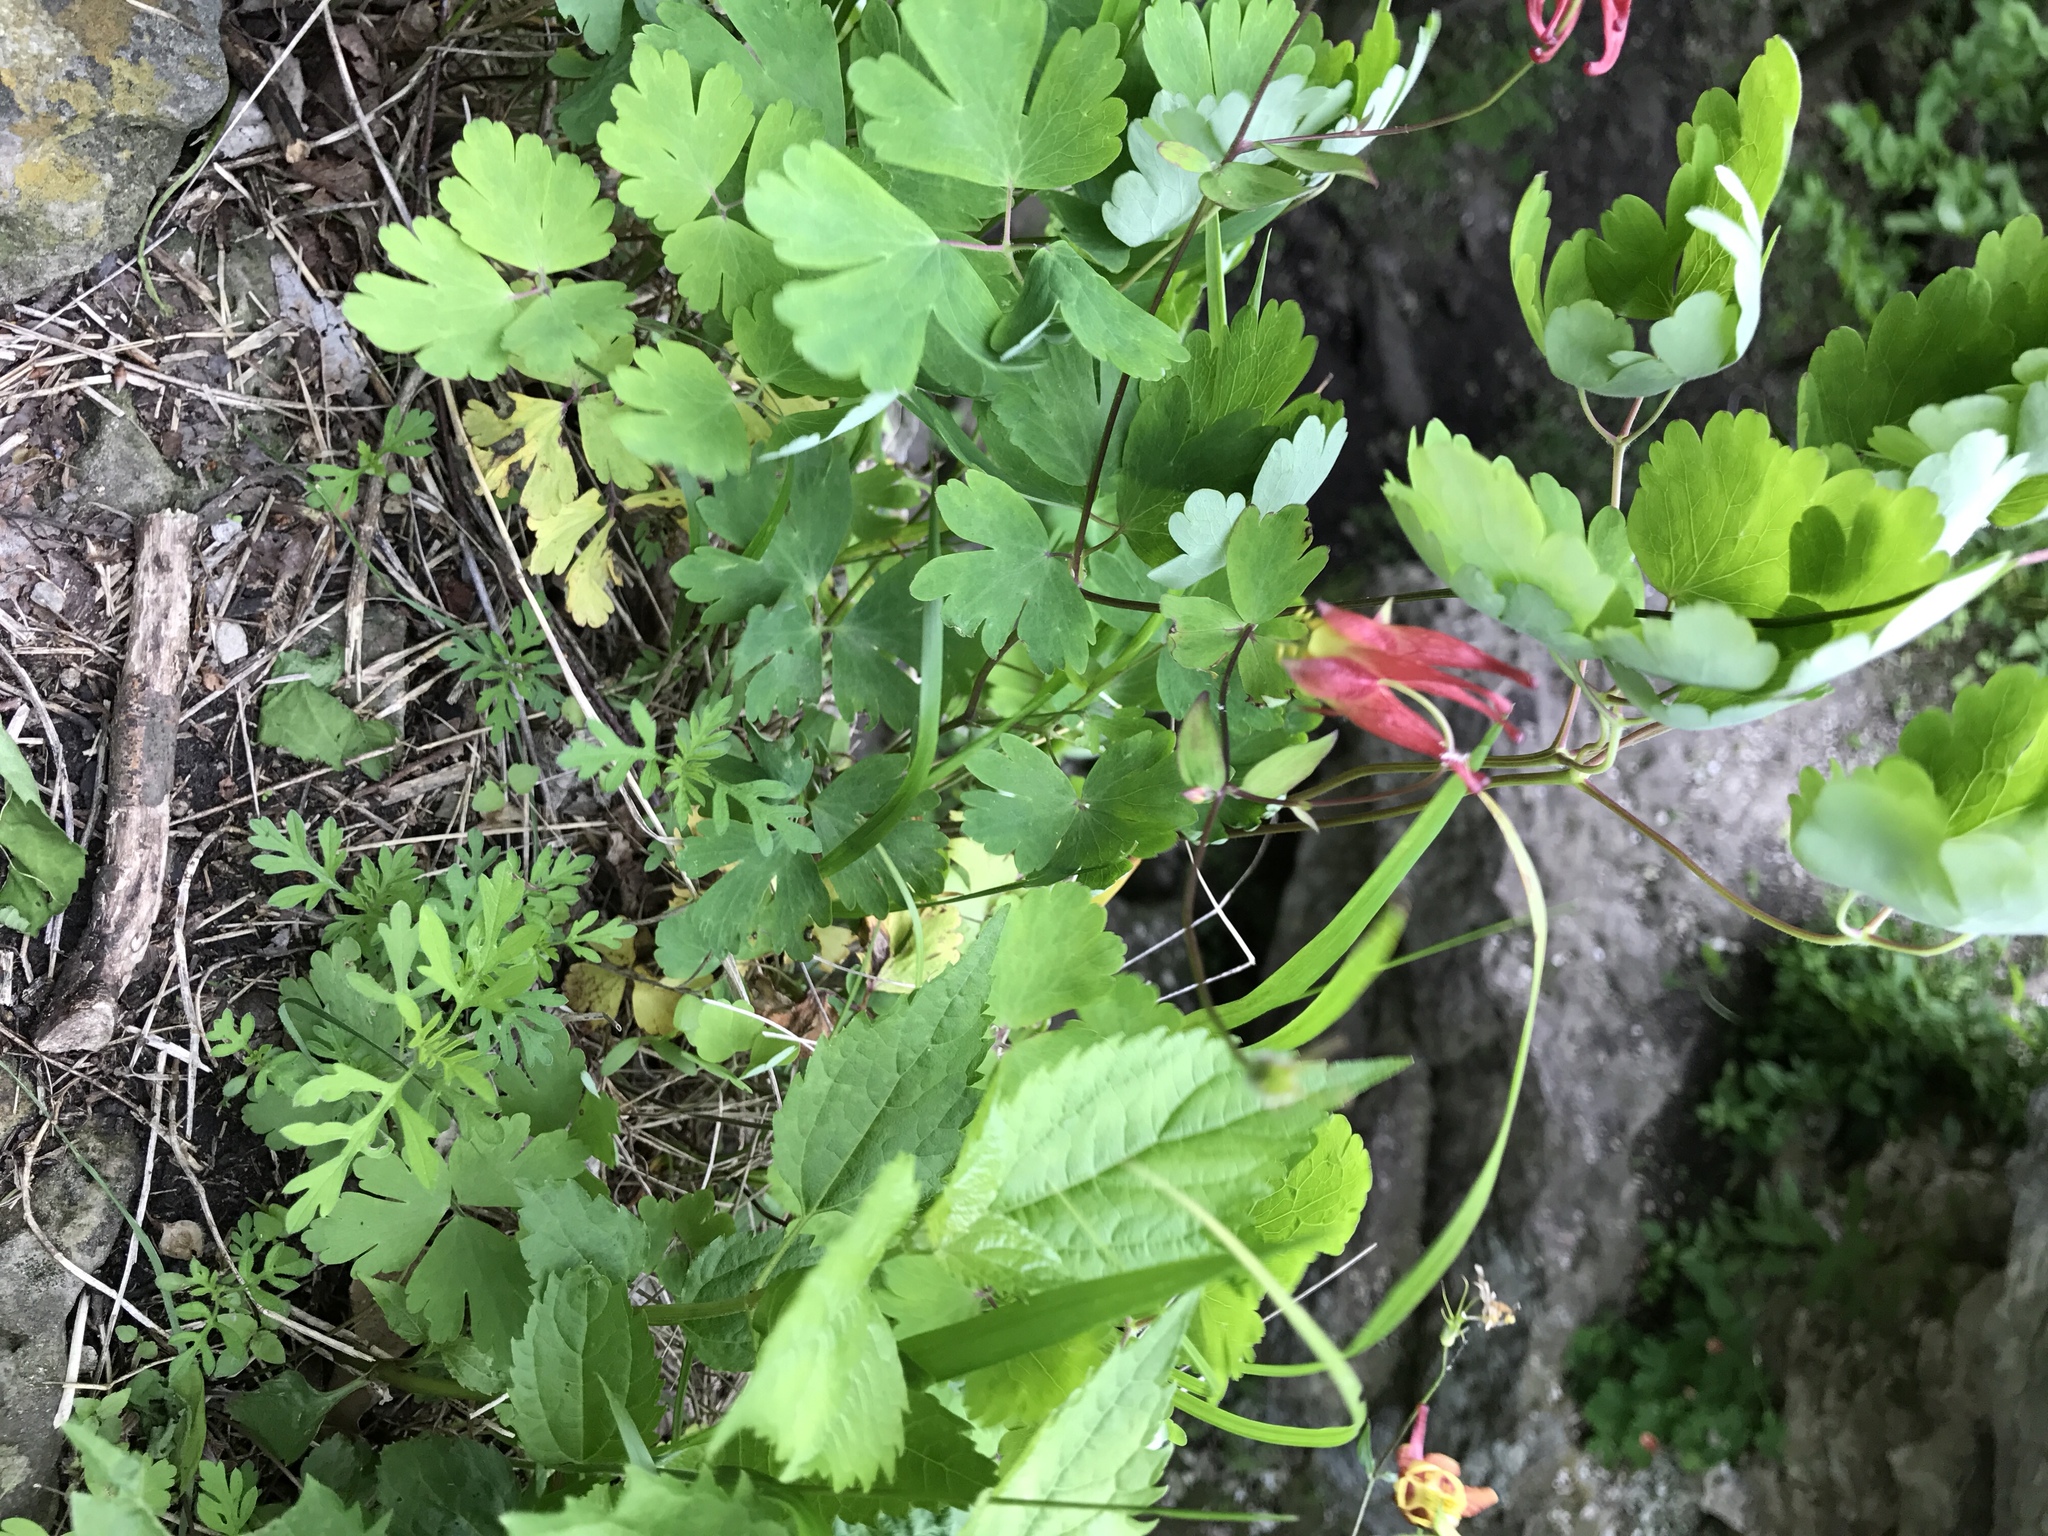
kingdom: Plantae
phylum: Tracheophyta
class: Magnoliopsida
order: Ranunculales
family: Ranunculaceae
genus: Aquilegia
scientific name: Aquilegia canadensis
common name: American columbine
